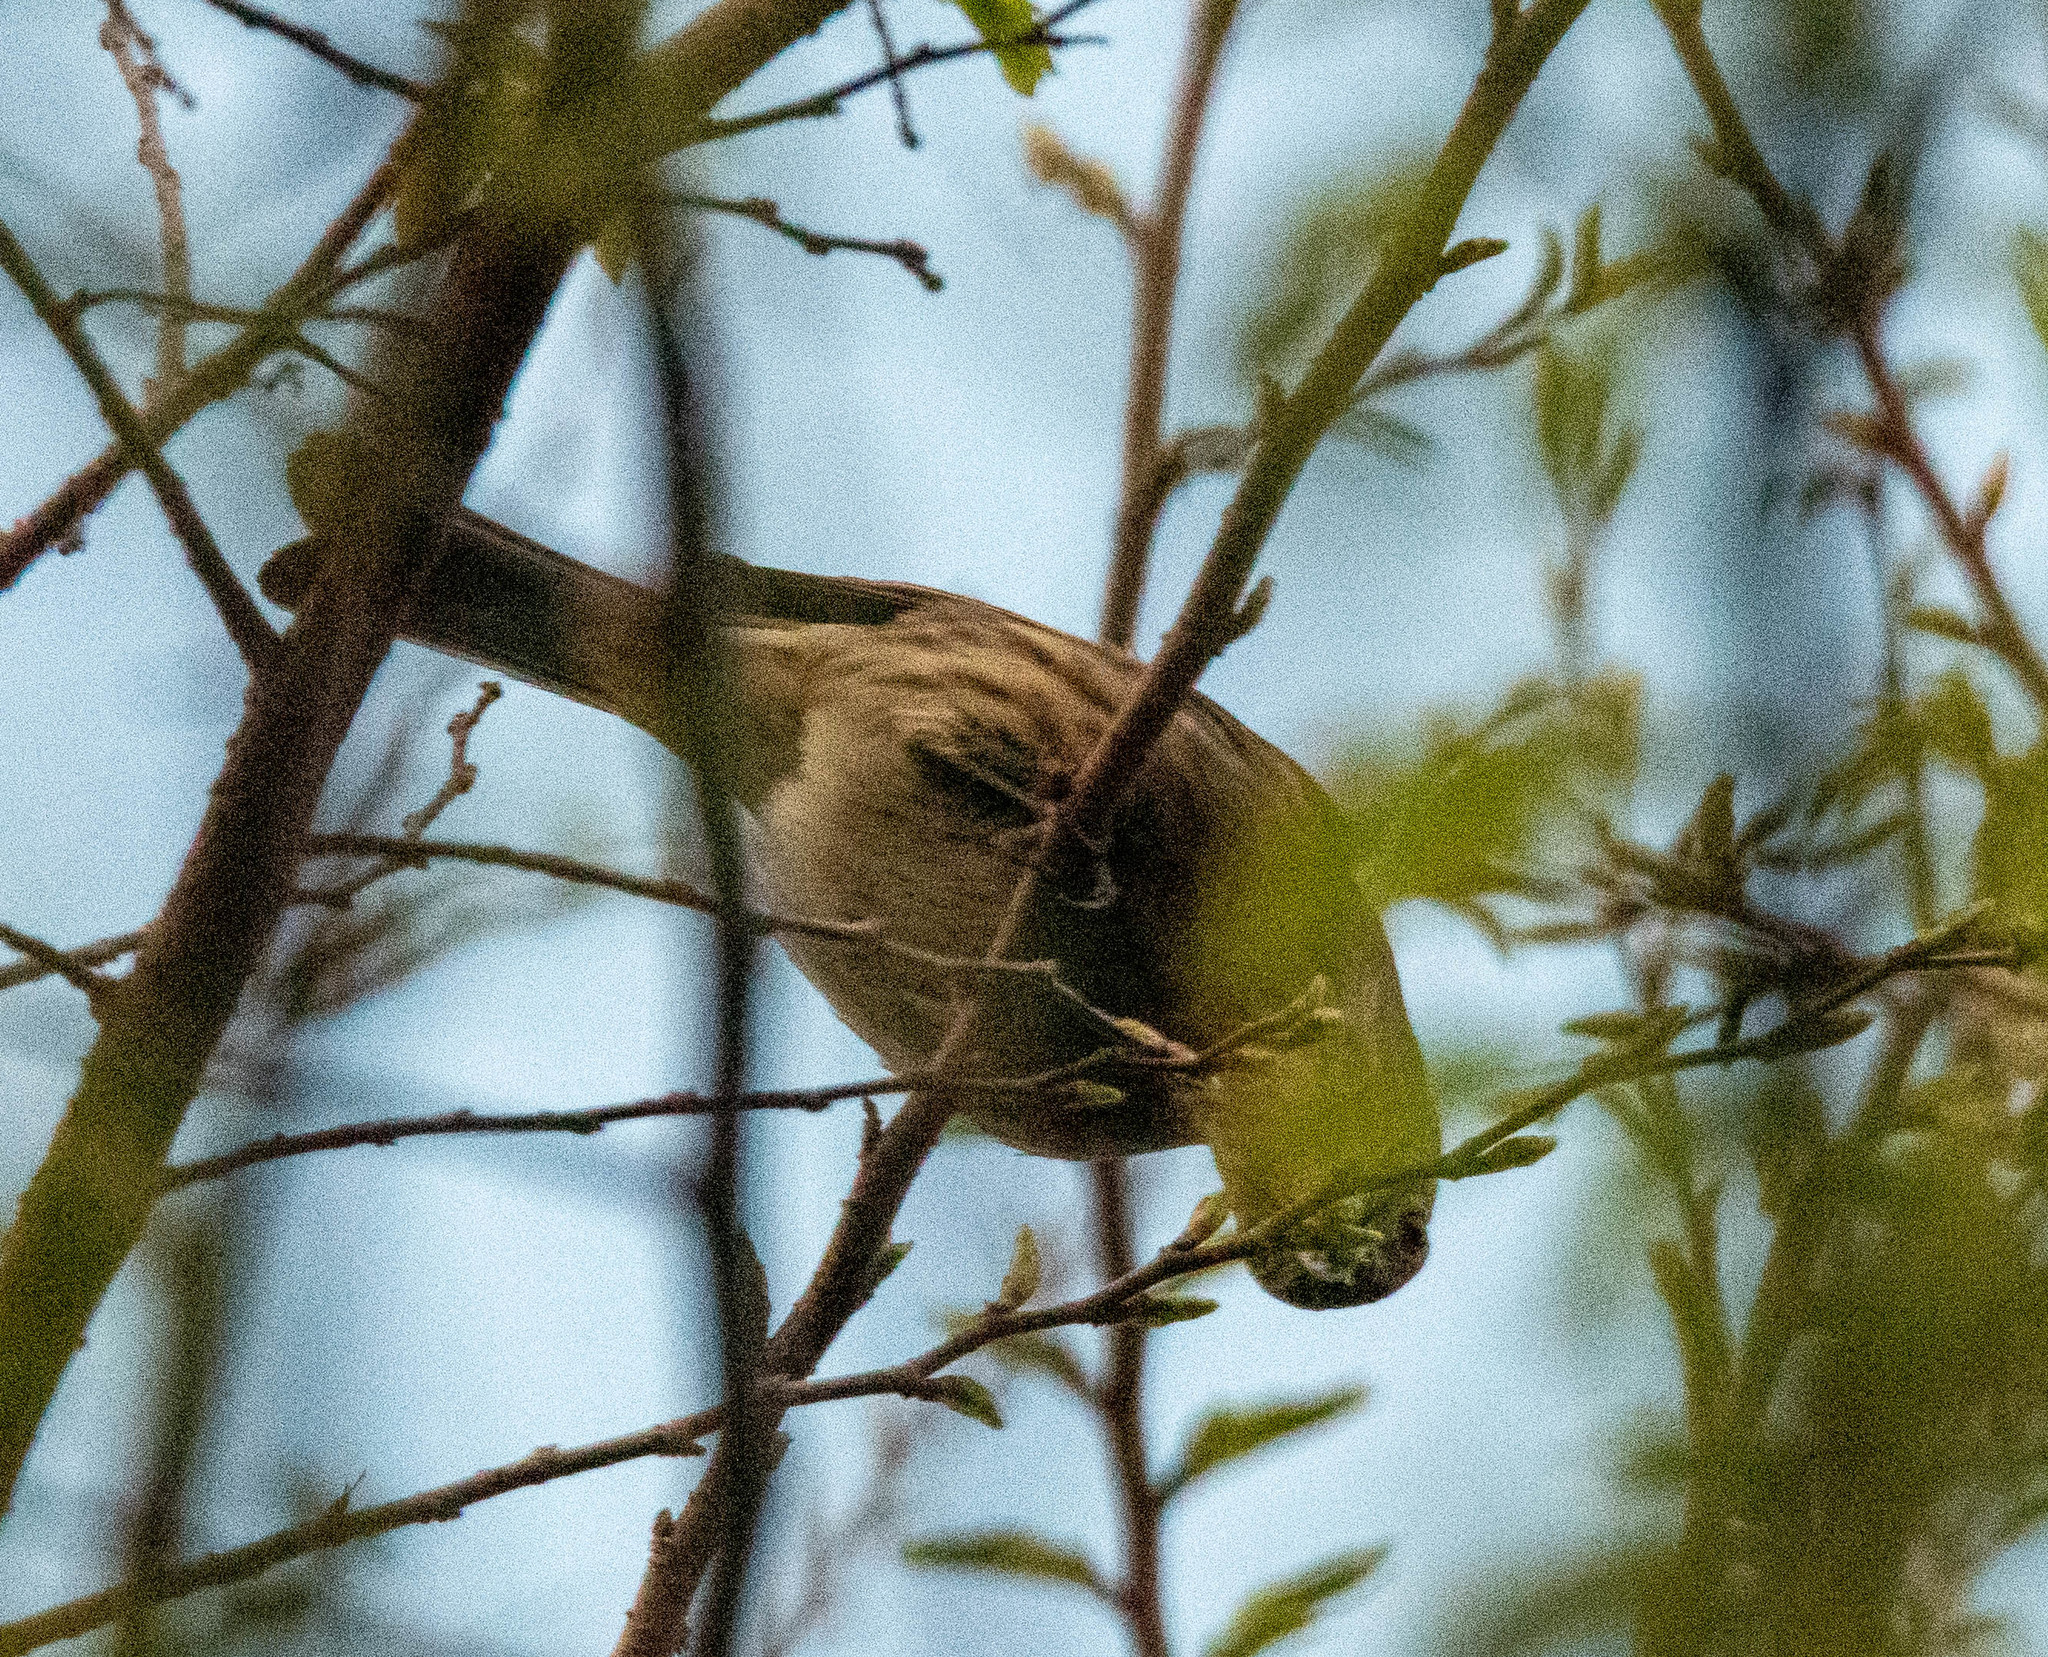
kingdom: Animalia
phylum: Chordata
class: Aves
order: Passeriformes
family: Fringillidae
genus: Haemorhous
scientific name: Haemorhous mexicanus
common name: House finch
